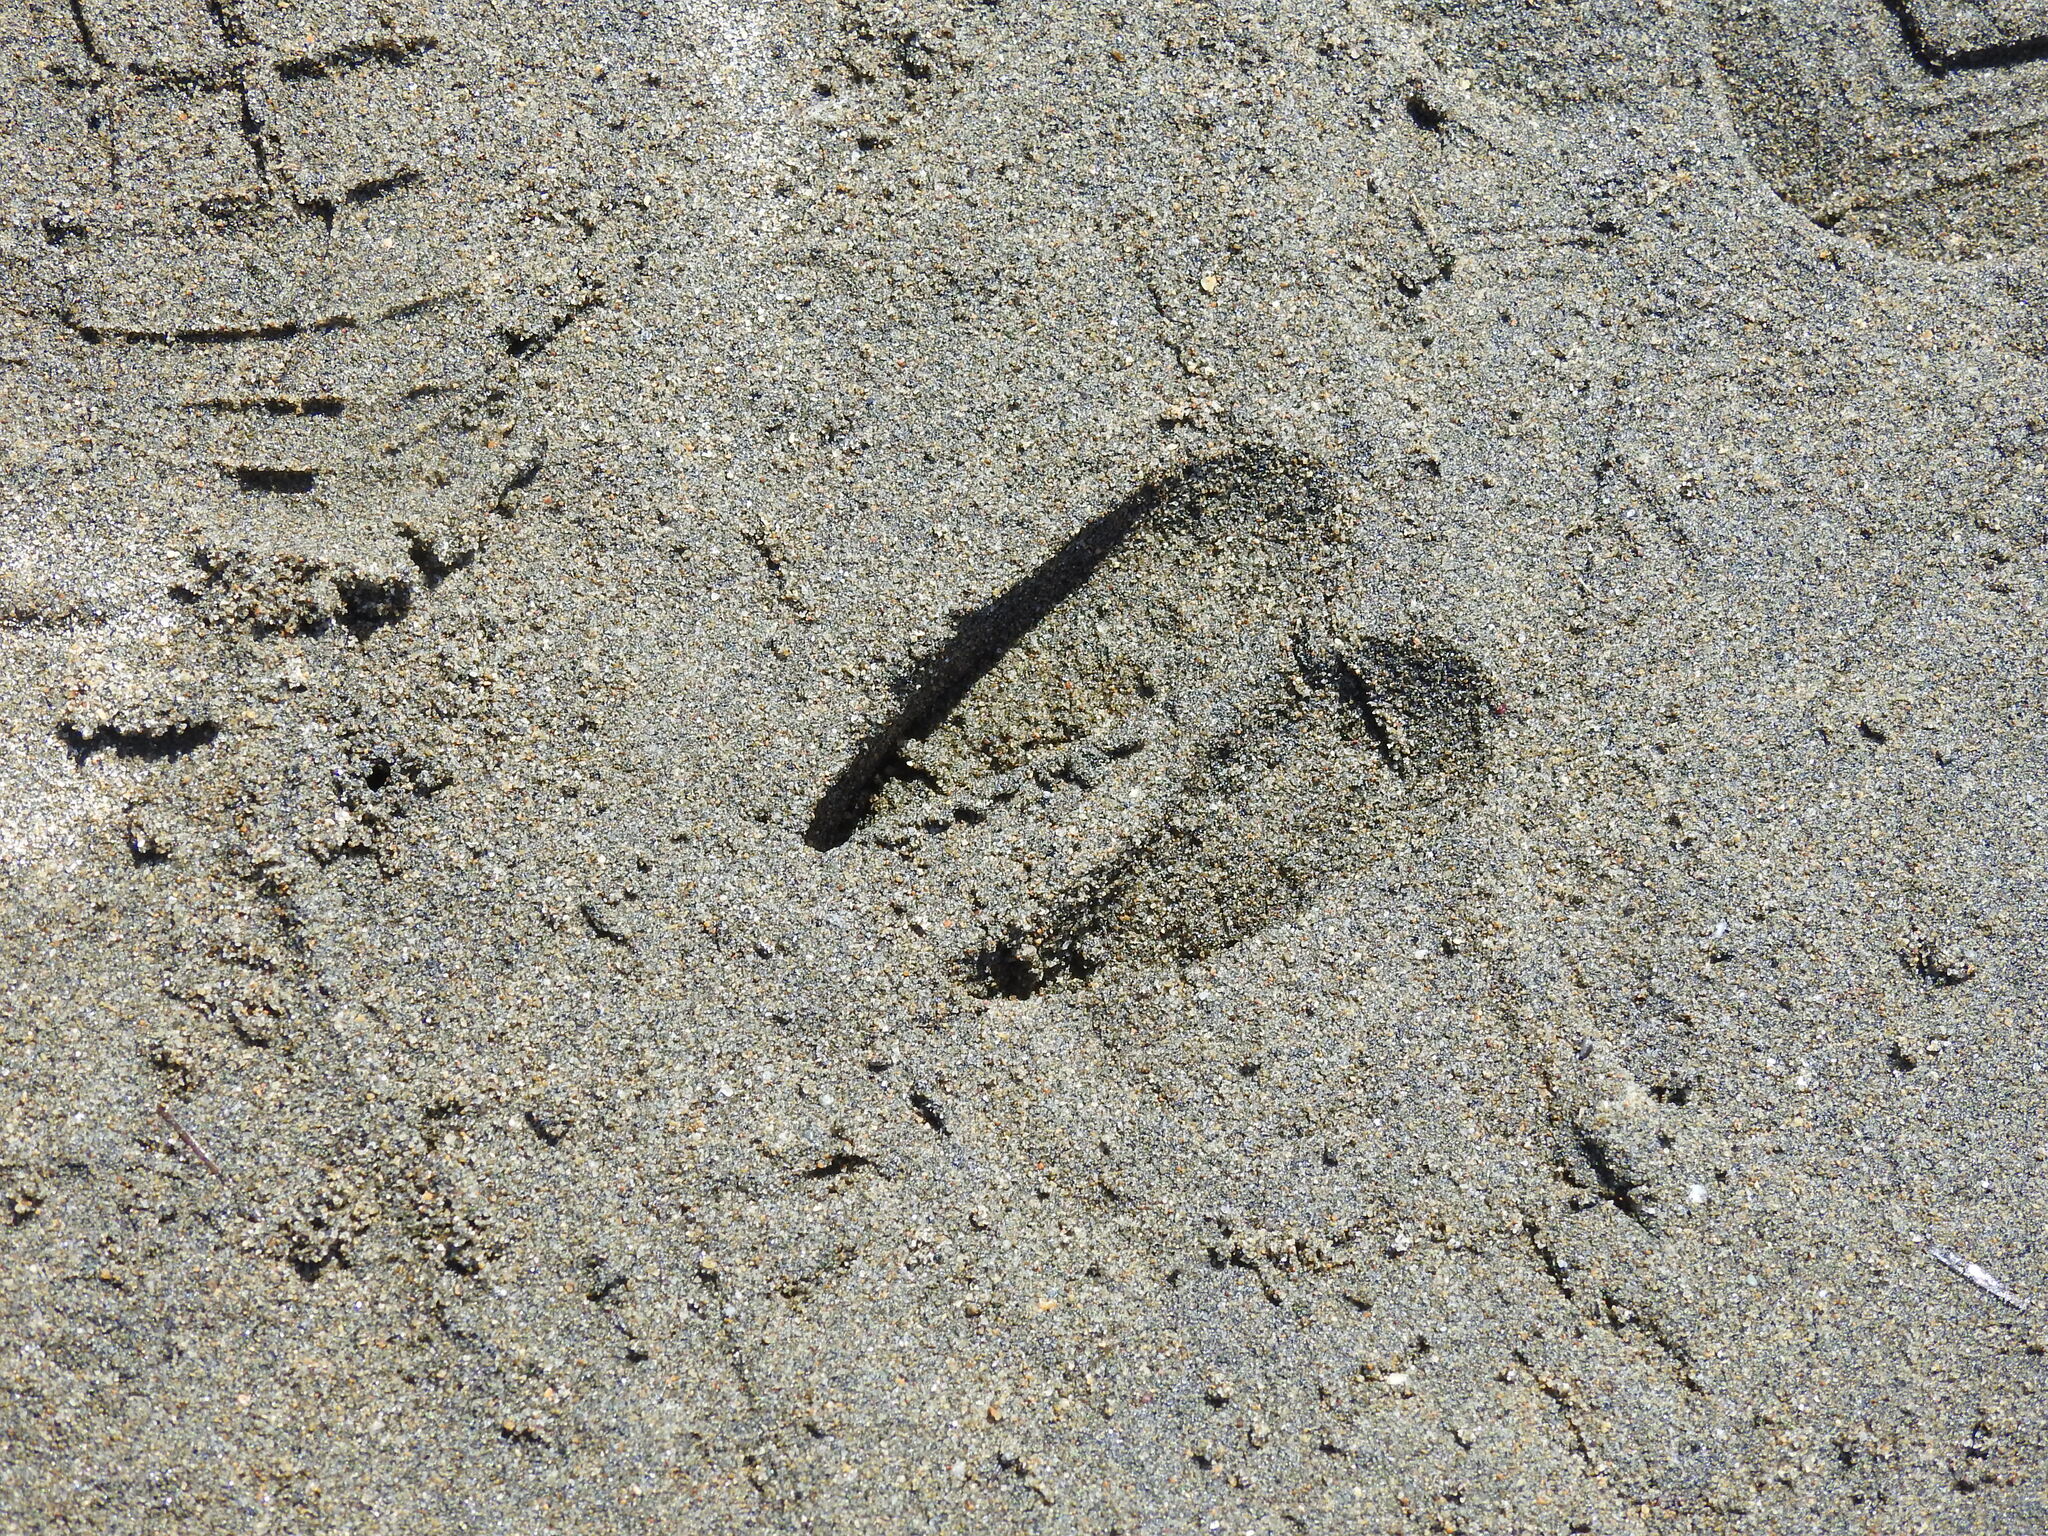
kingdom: Animalia
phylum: Chordata
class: Mammalia
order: Artiodactyla
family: Cervidae
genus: Odocoileus
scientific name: Odocoileus hemionus
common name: Mule deer
